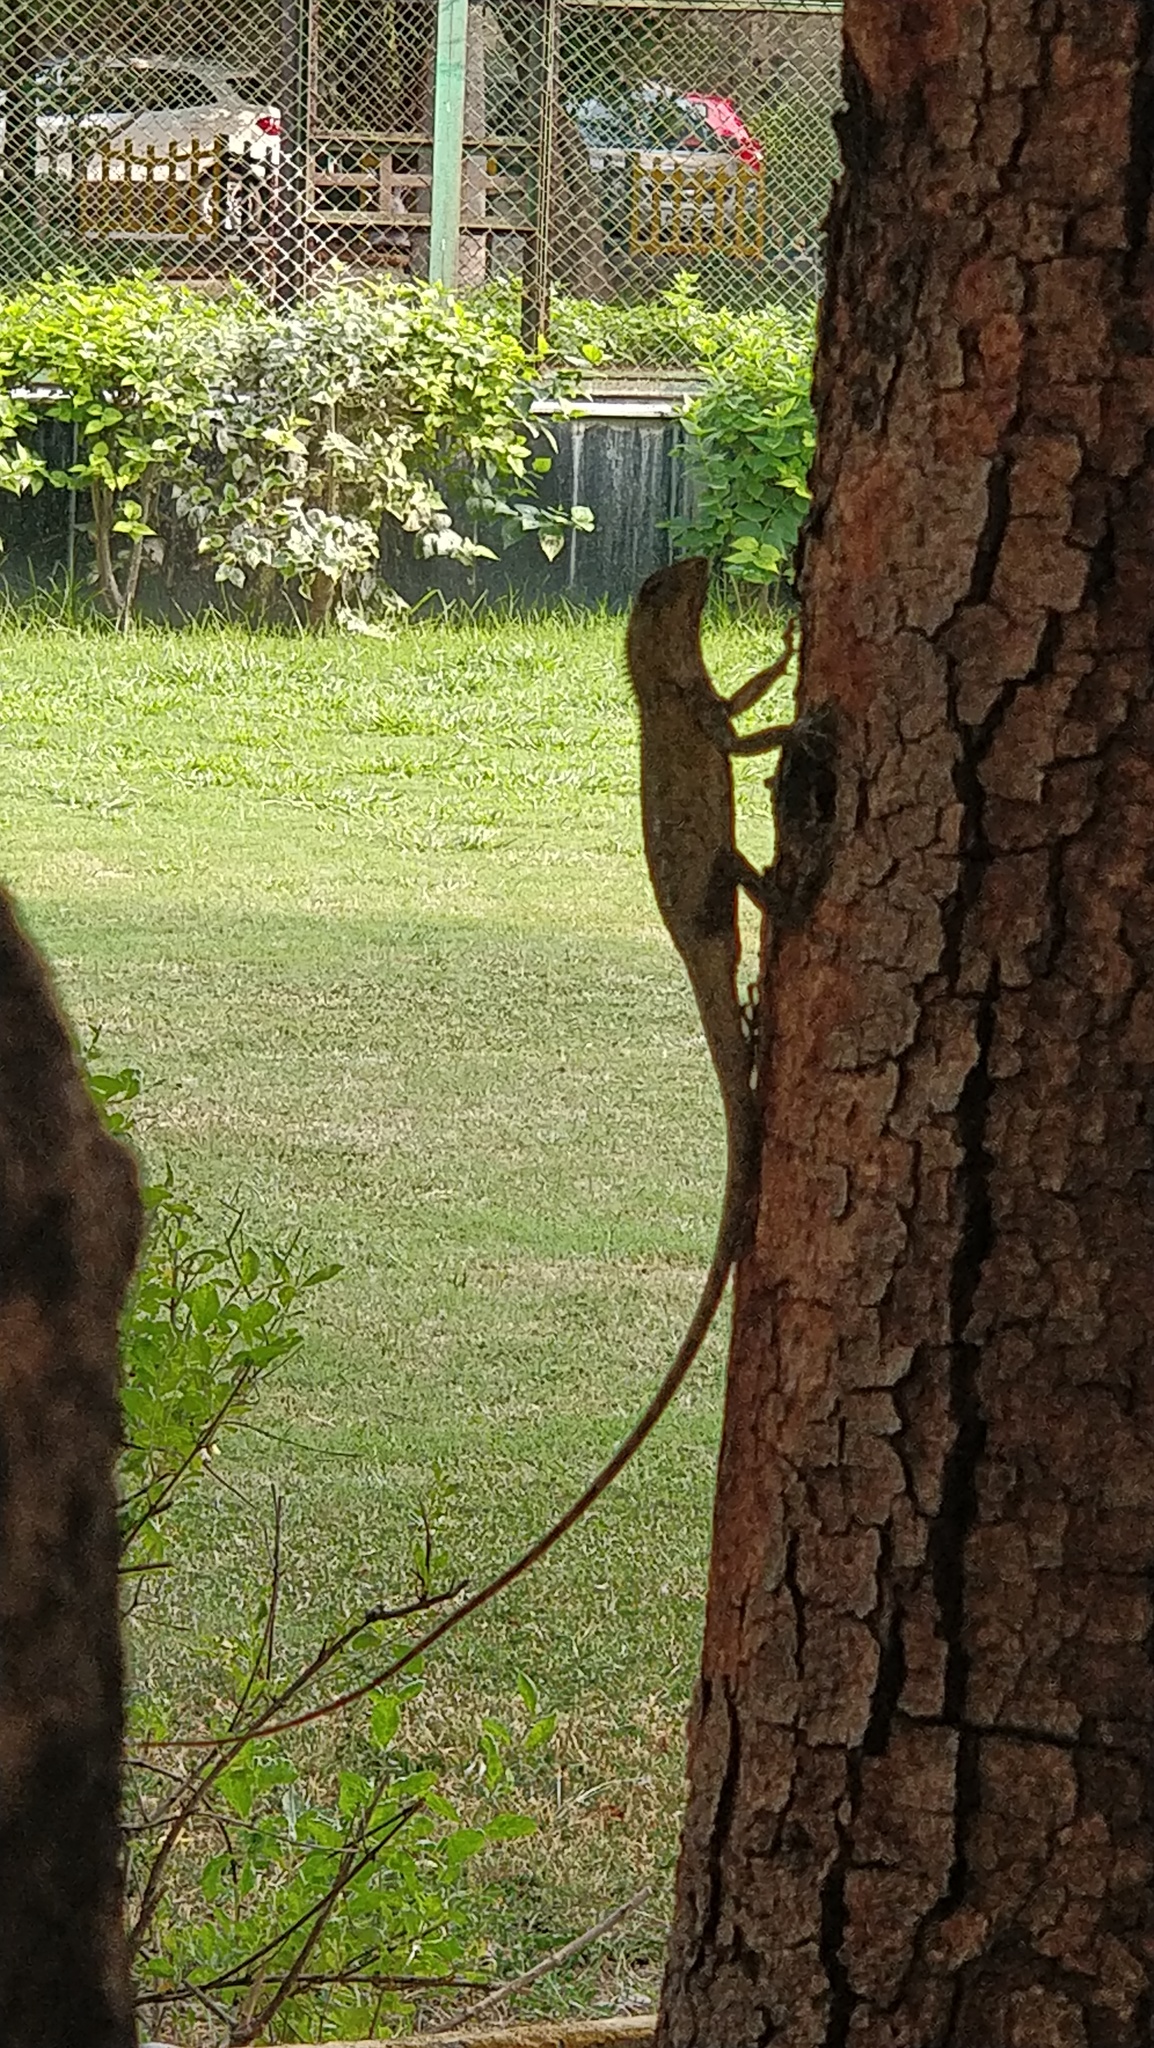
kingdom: Animalia
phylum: Chordata
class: Squamata
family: Agamidae
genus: Calotes
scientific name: Calotes versicolor
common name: Oriental garden lizard
